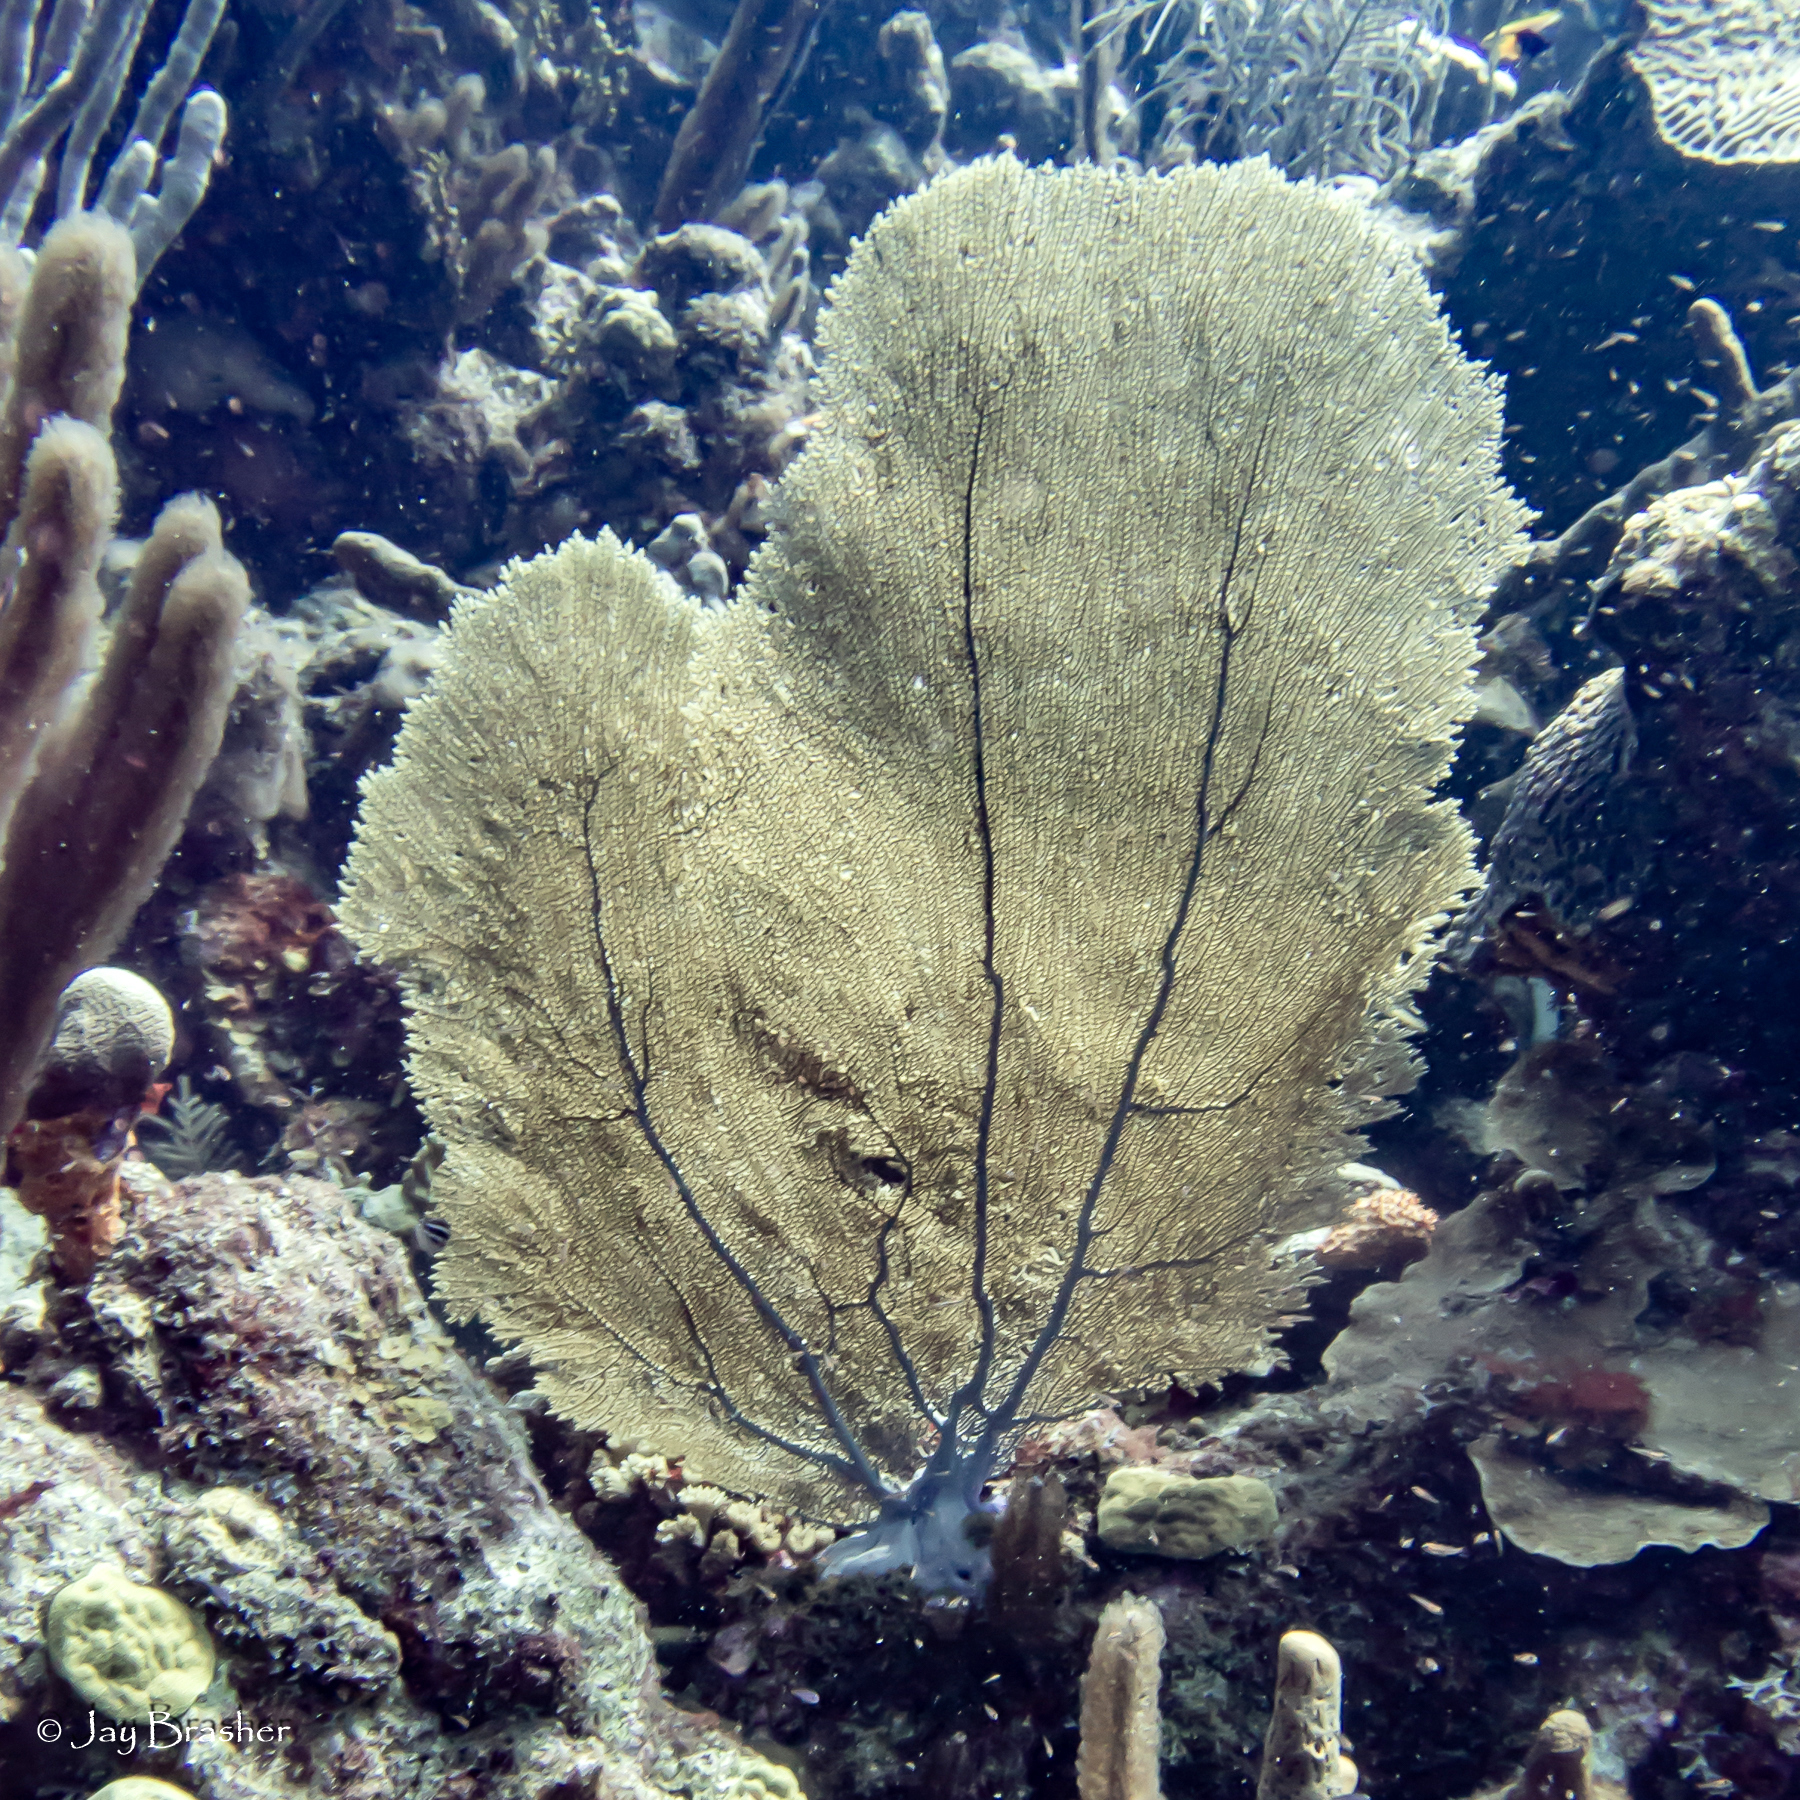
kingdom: Animalia
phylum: Cnidaria
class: Anthozoa
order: Malacalcyonacea
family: Gorgoniidae
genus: Gorgonia
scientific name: Gorgonia ventalina
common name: Common sea fan
